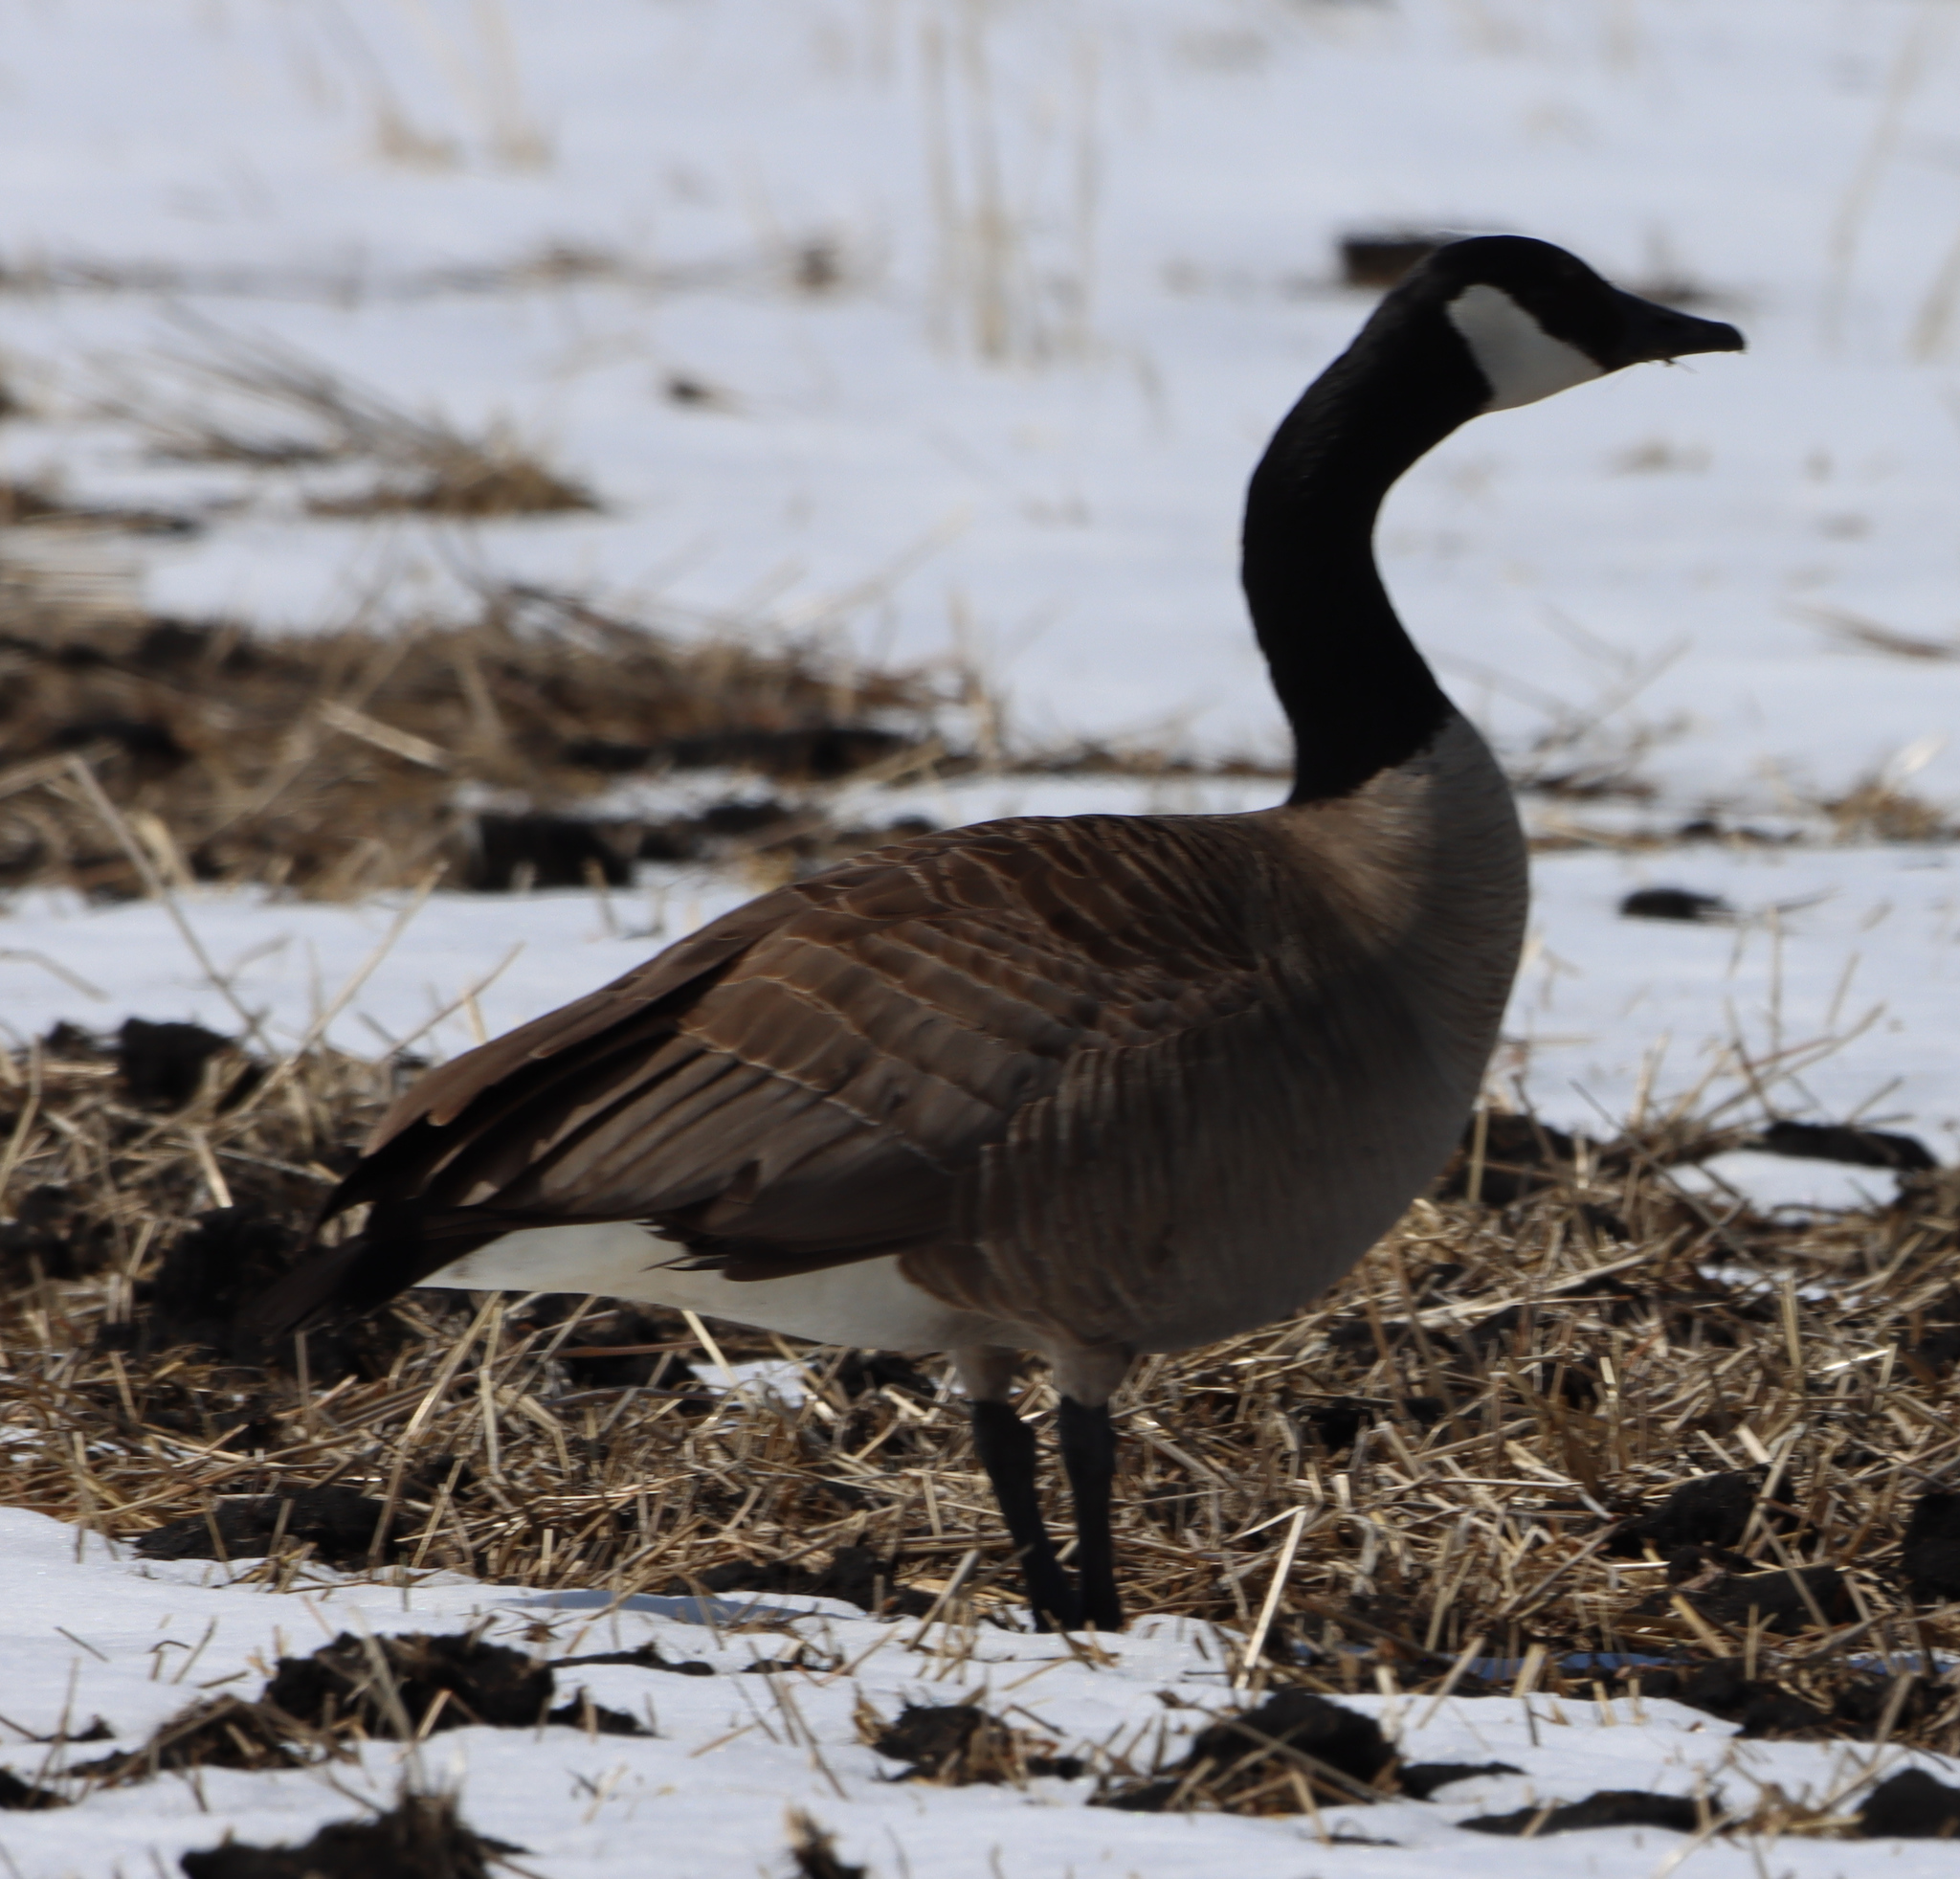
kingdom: Animalia
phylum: Chordata
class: Aves
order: Anseriformes
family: Anatidae
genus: Branta
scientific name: Branta canadensis
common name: Canada goose
